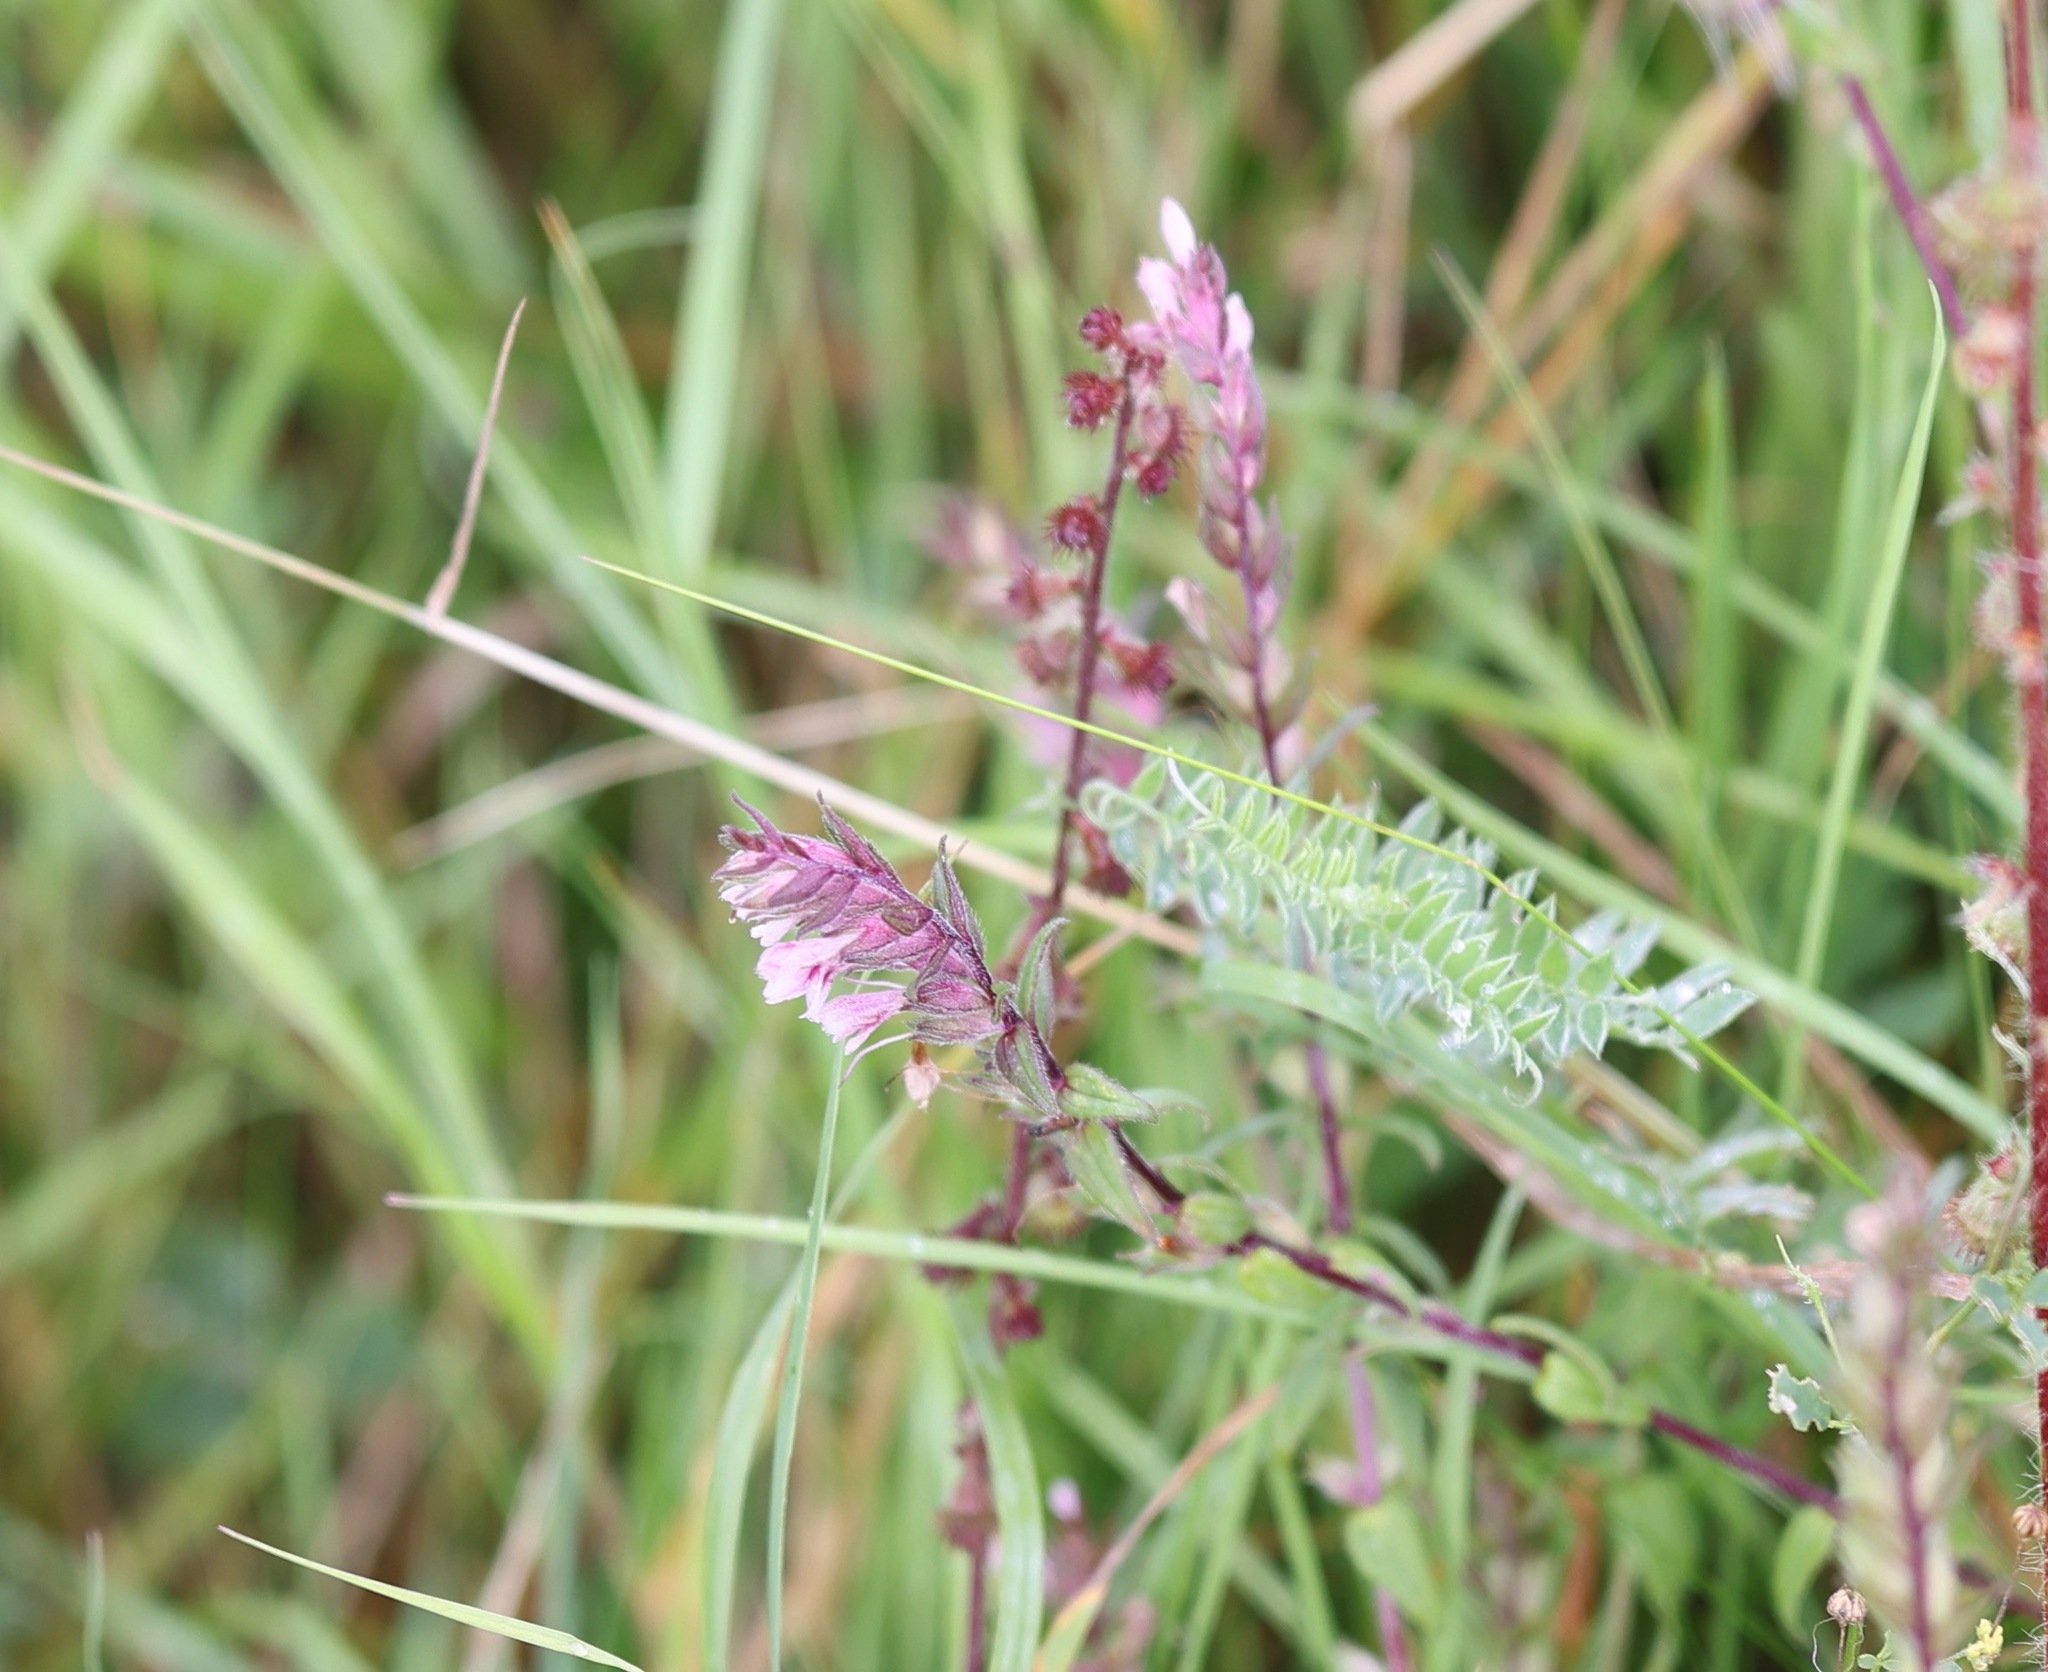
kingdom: Plantae
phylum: Tracheophyta
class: Magnoliopsida
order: Lamiales
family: Orobanchaceae
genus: Odontites
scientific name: Odontites vulgaris
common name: Broomrape
